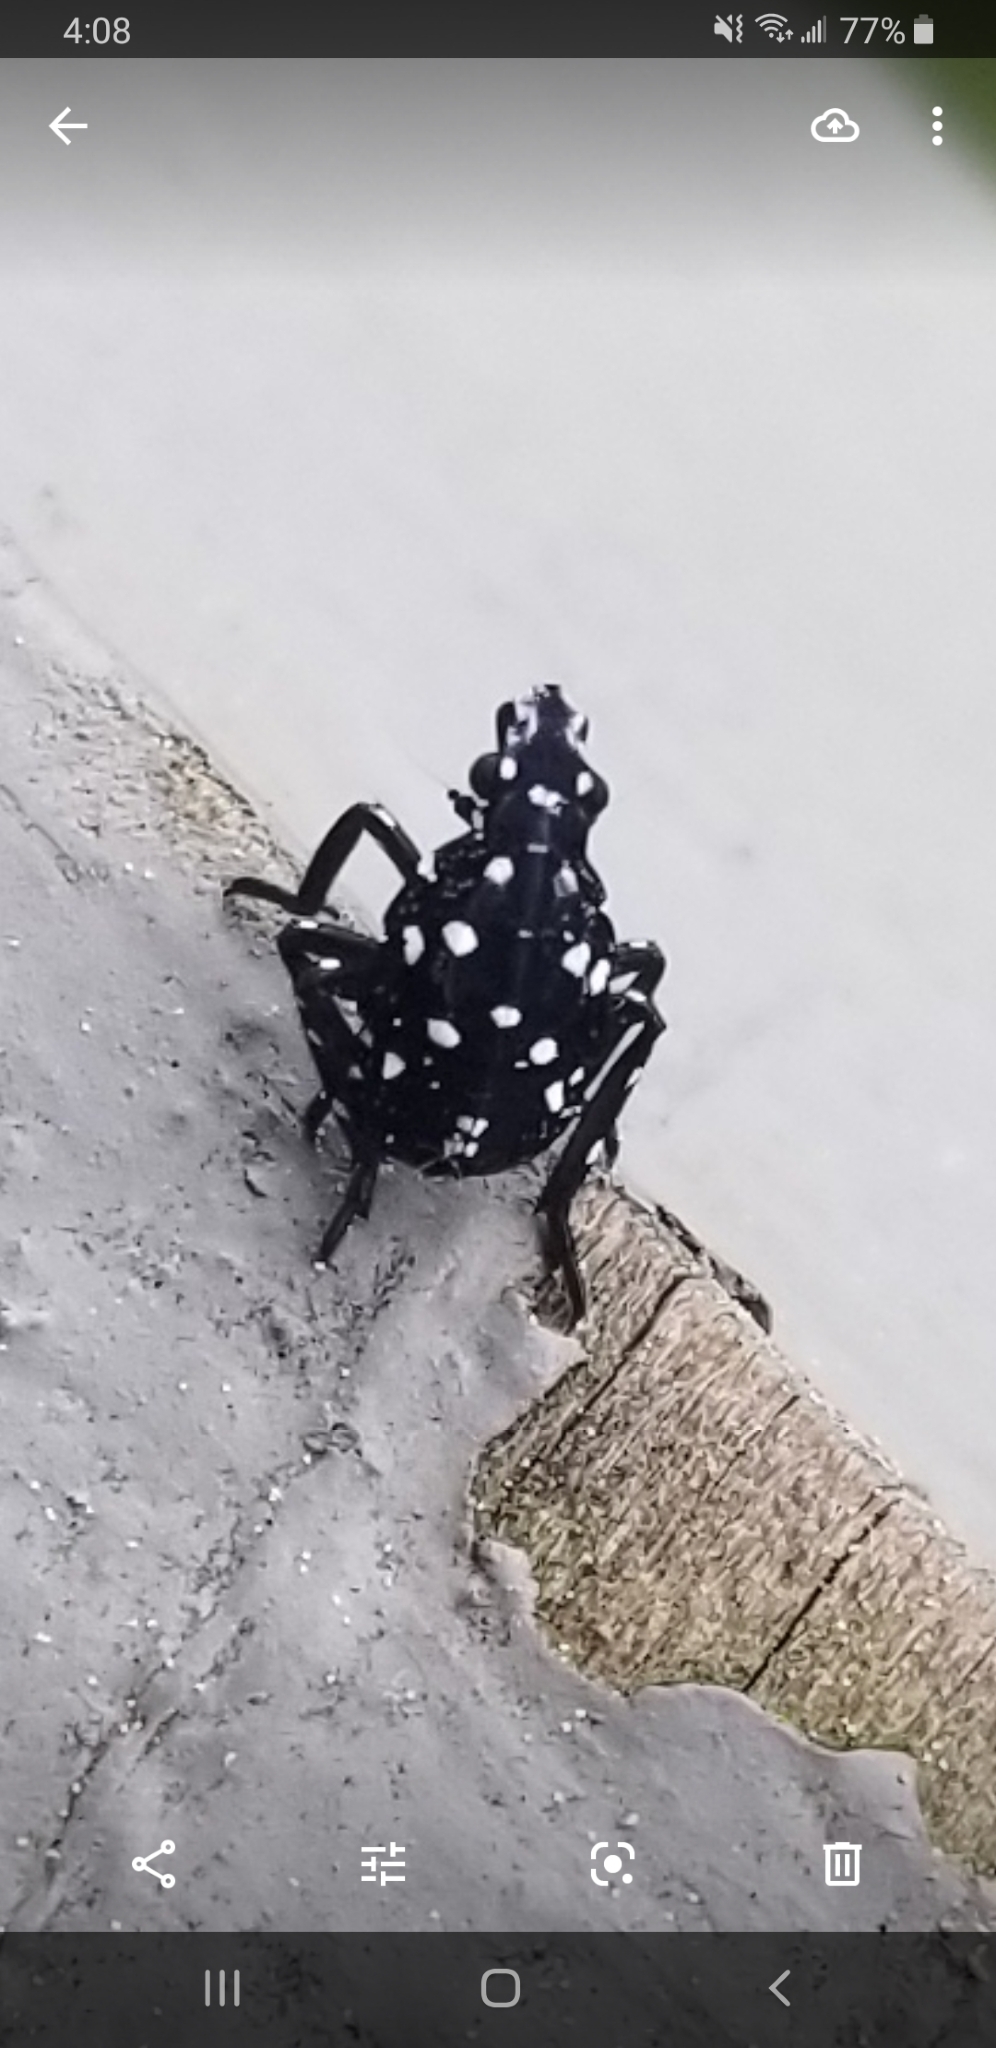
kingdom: Animalia
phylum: Arthropoda
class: Insecta
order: Hemiptera
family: Fulgoridae
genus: Lycorma
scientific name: Lycorma delicatula
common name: Spotted lanternfly
